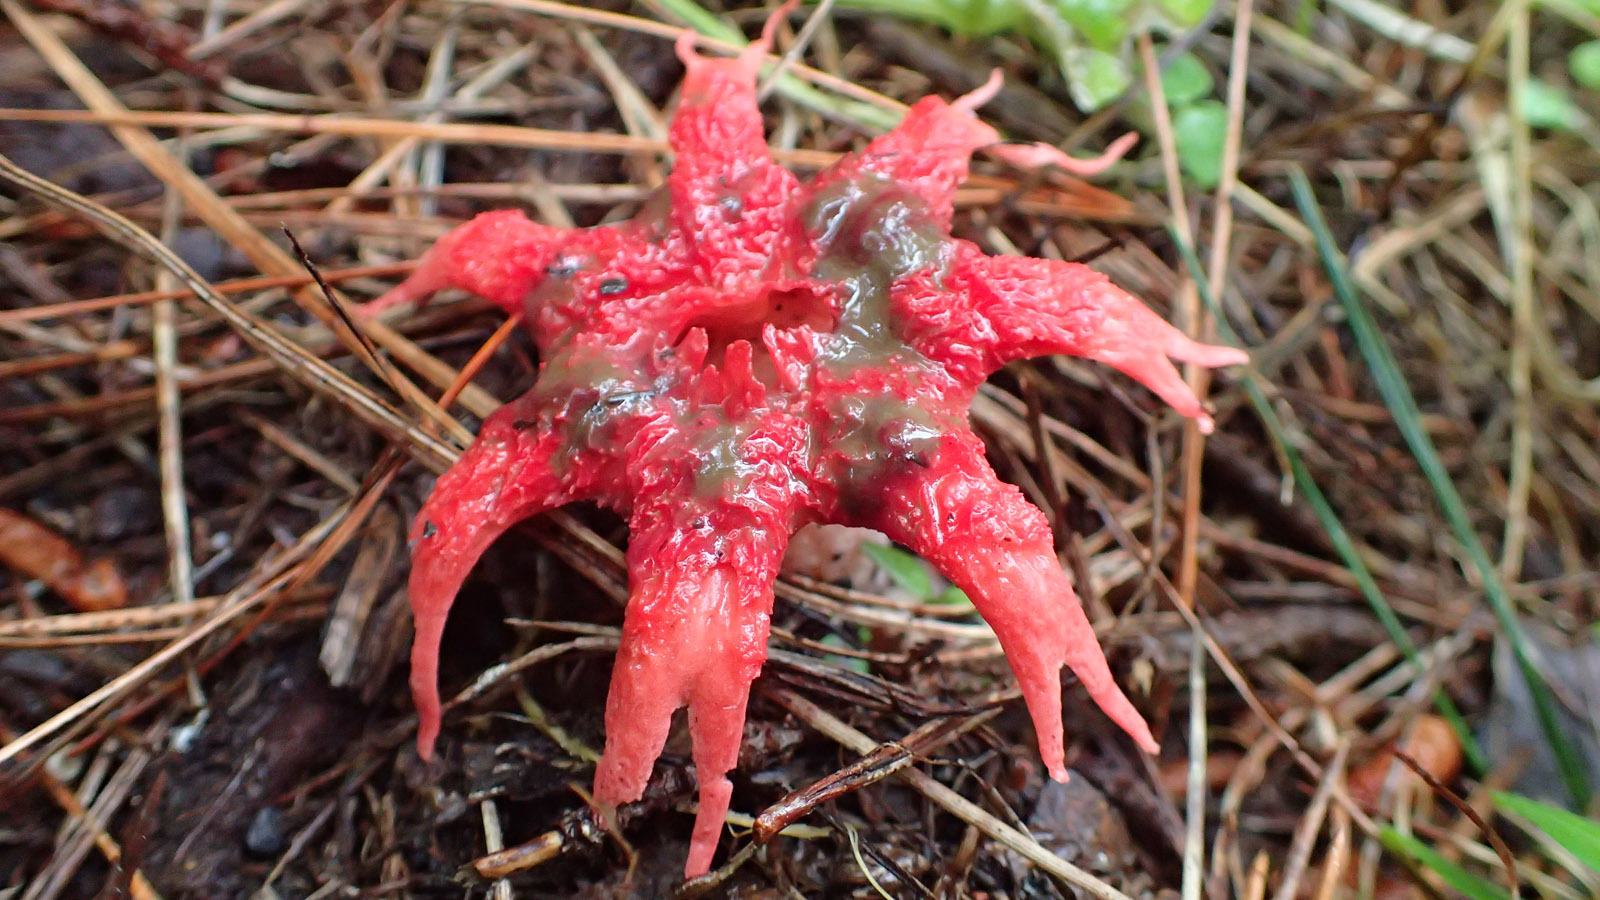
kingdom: Fungi
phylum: Basidiomycota
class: Agaricomycetes
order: Phallales
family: Phallaceae
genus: Aseroe
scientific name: Aseroe rubra
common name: Starfish fungus
